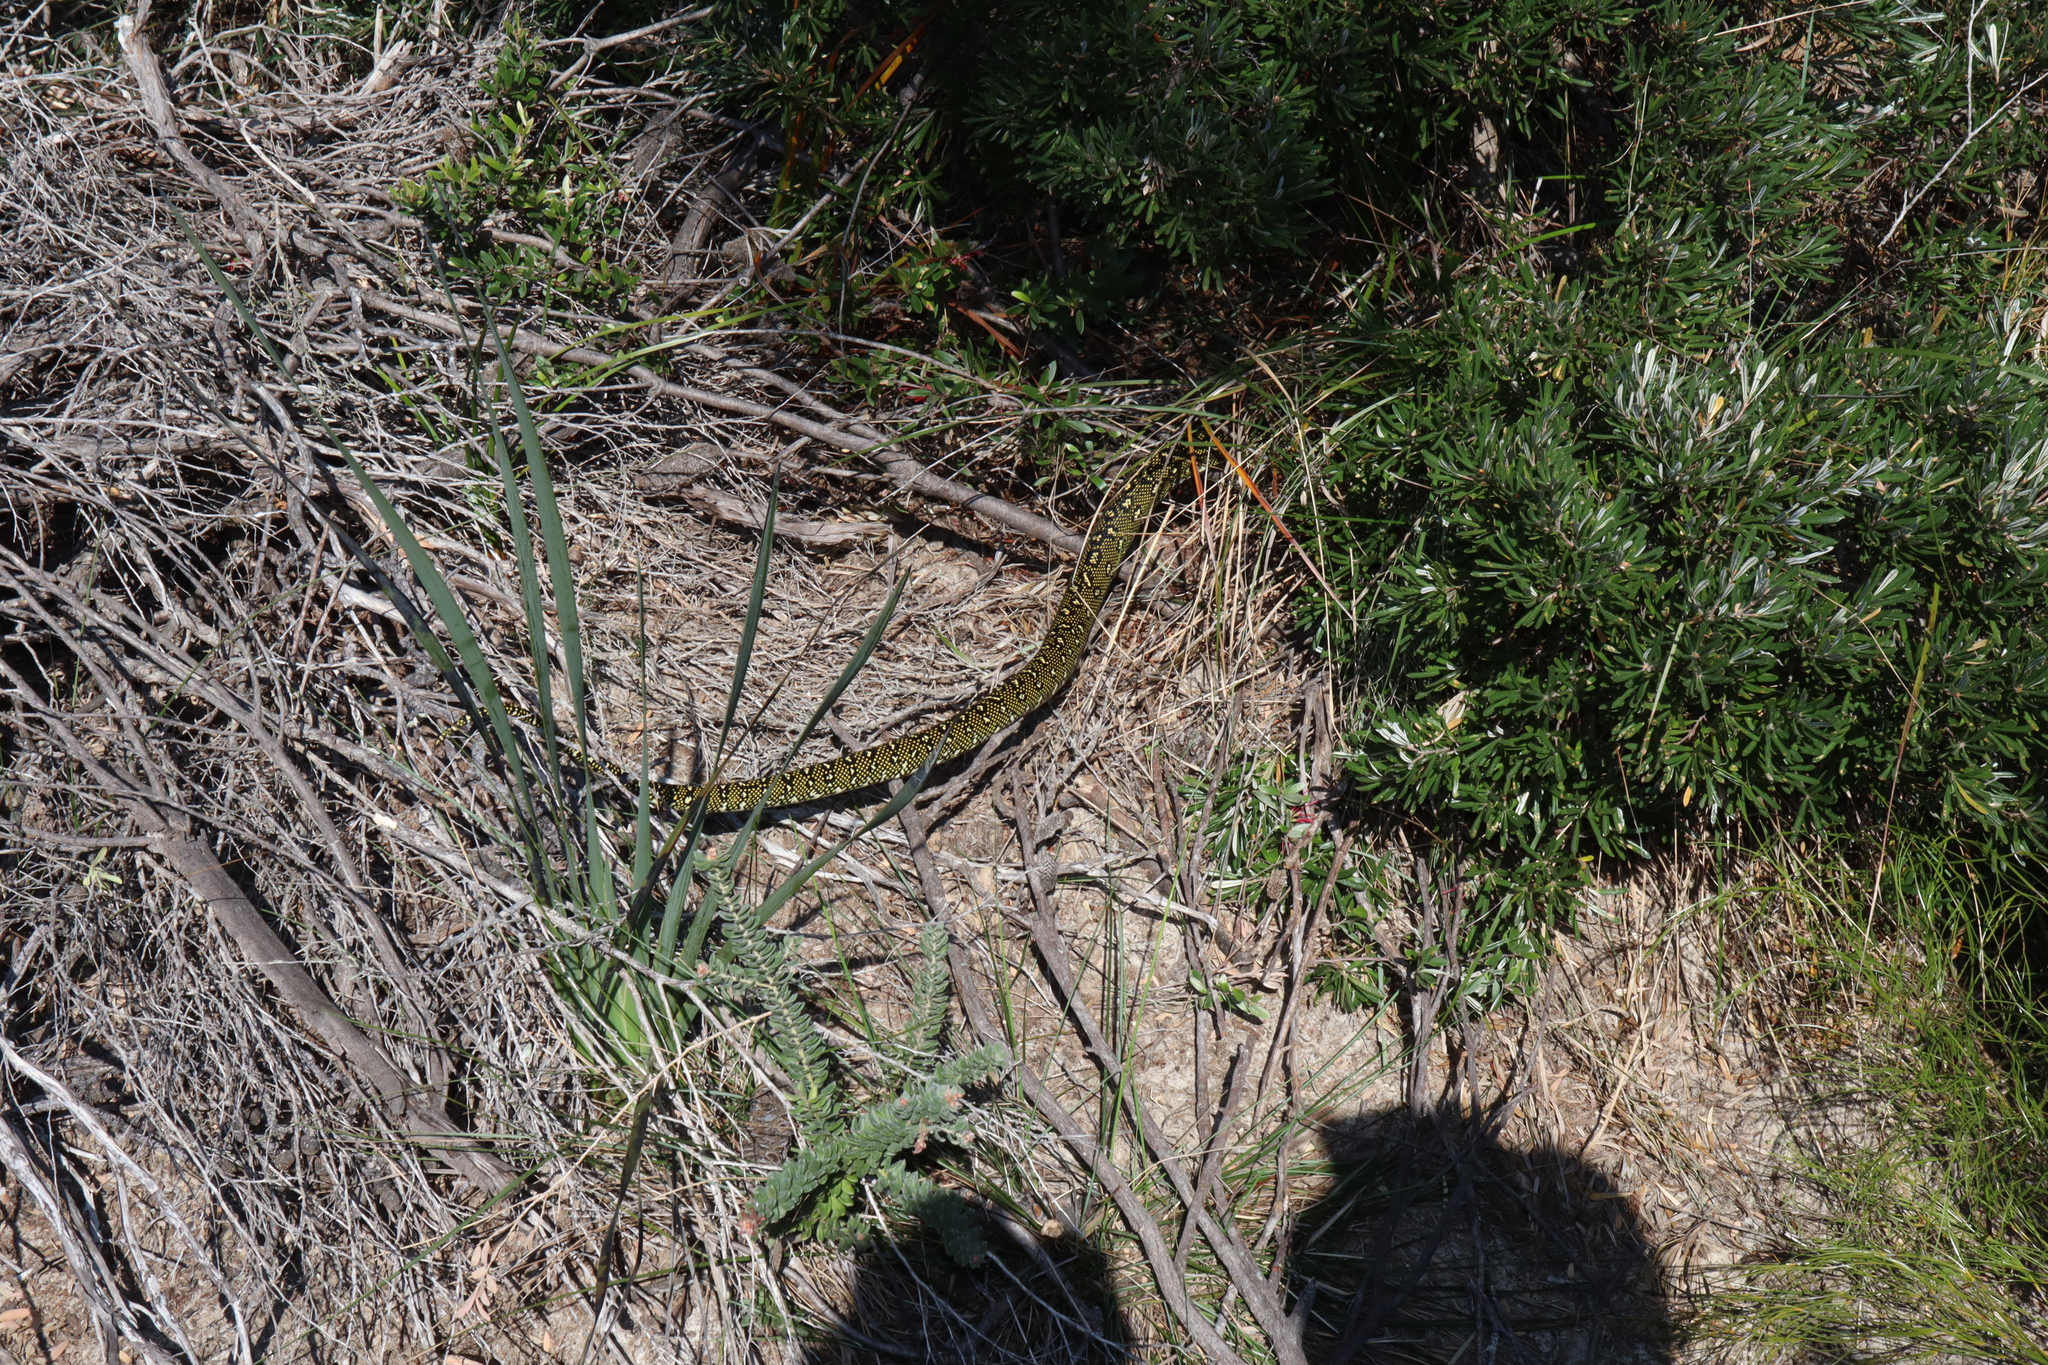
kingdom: Animalia
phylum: Chordata
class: Squamata
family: Pythonidae
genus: Morelia
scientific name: Morelia spilota
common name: Carpet python
